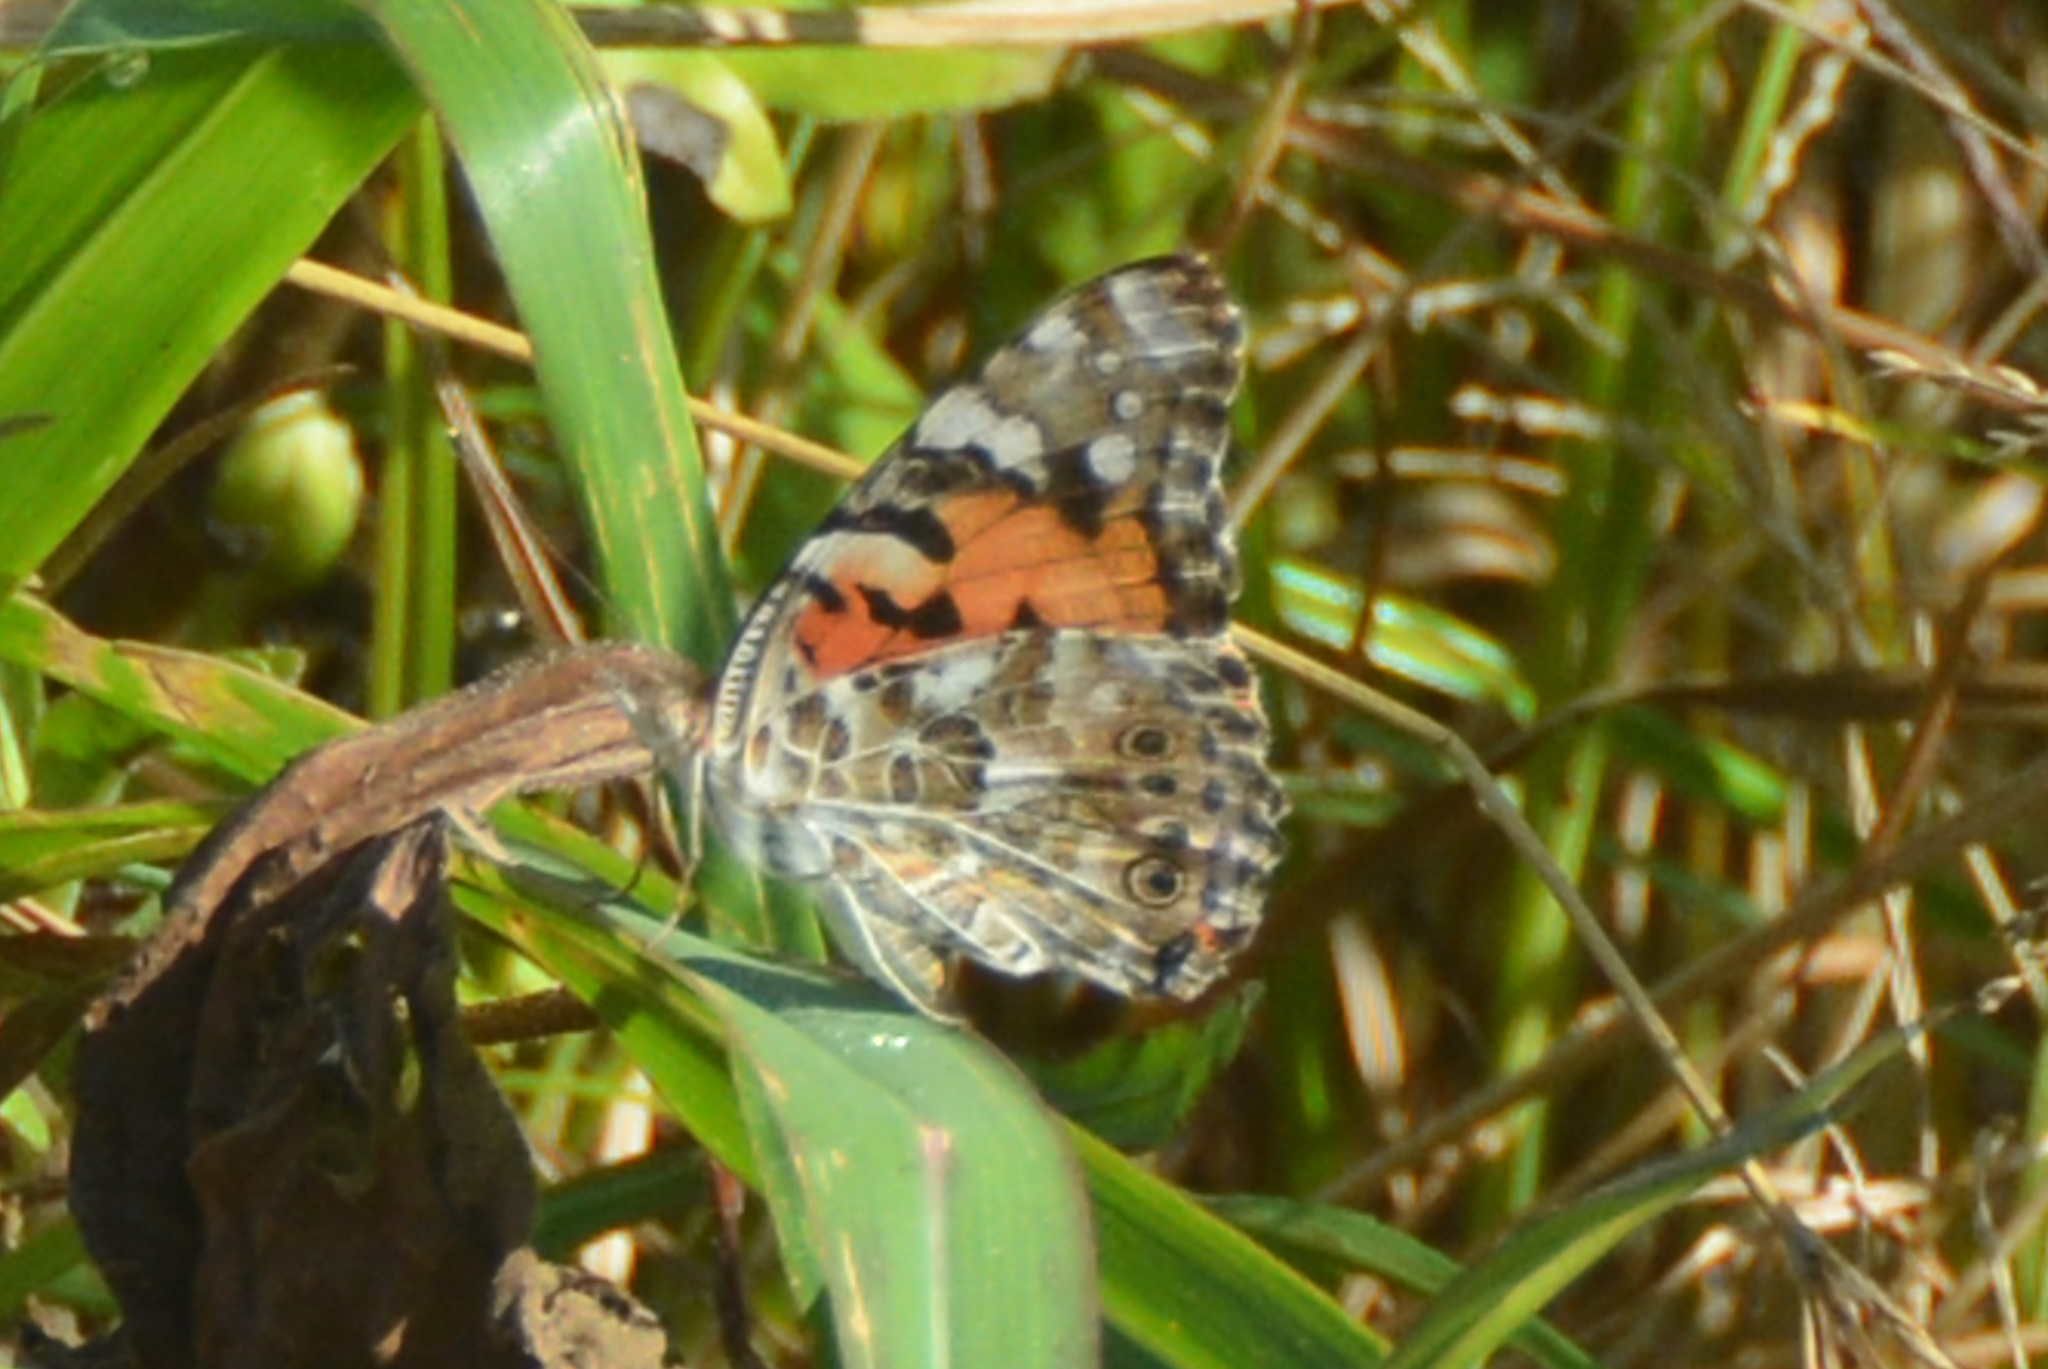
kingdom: Animalia
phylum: Arthropoda
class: Insecta
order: Lepidoptera
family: Nymphalidae
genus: Vanessa
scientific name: Vanessa cardui
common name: Painted lady
